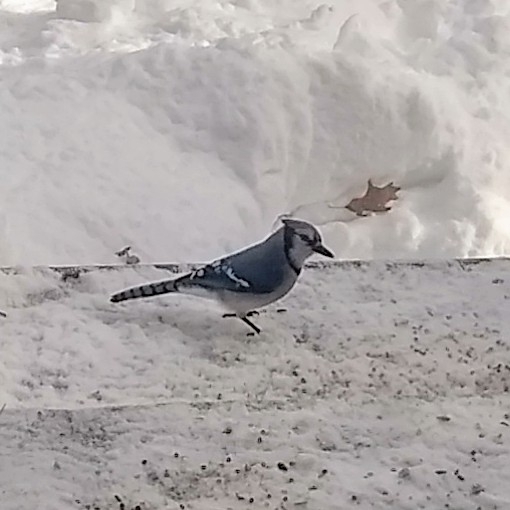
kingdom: Animalia
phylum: Chordata
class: Aves
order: Passeriformes
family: Corvidae
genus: Cyanocitta
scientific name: Cyanocitta cristata
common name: Blue jay
